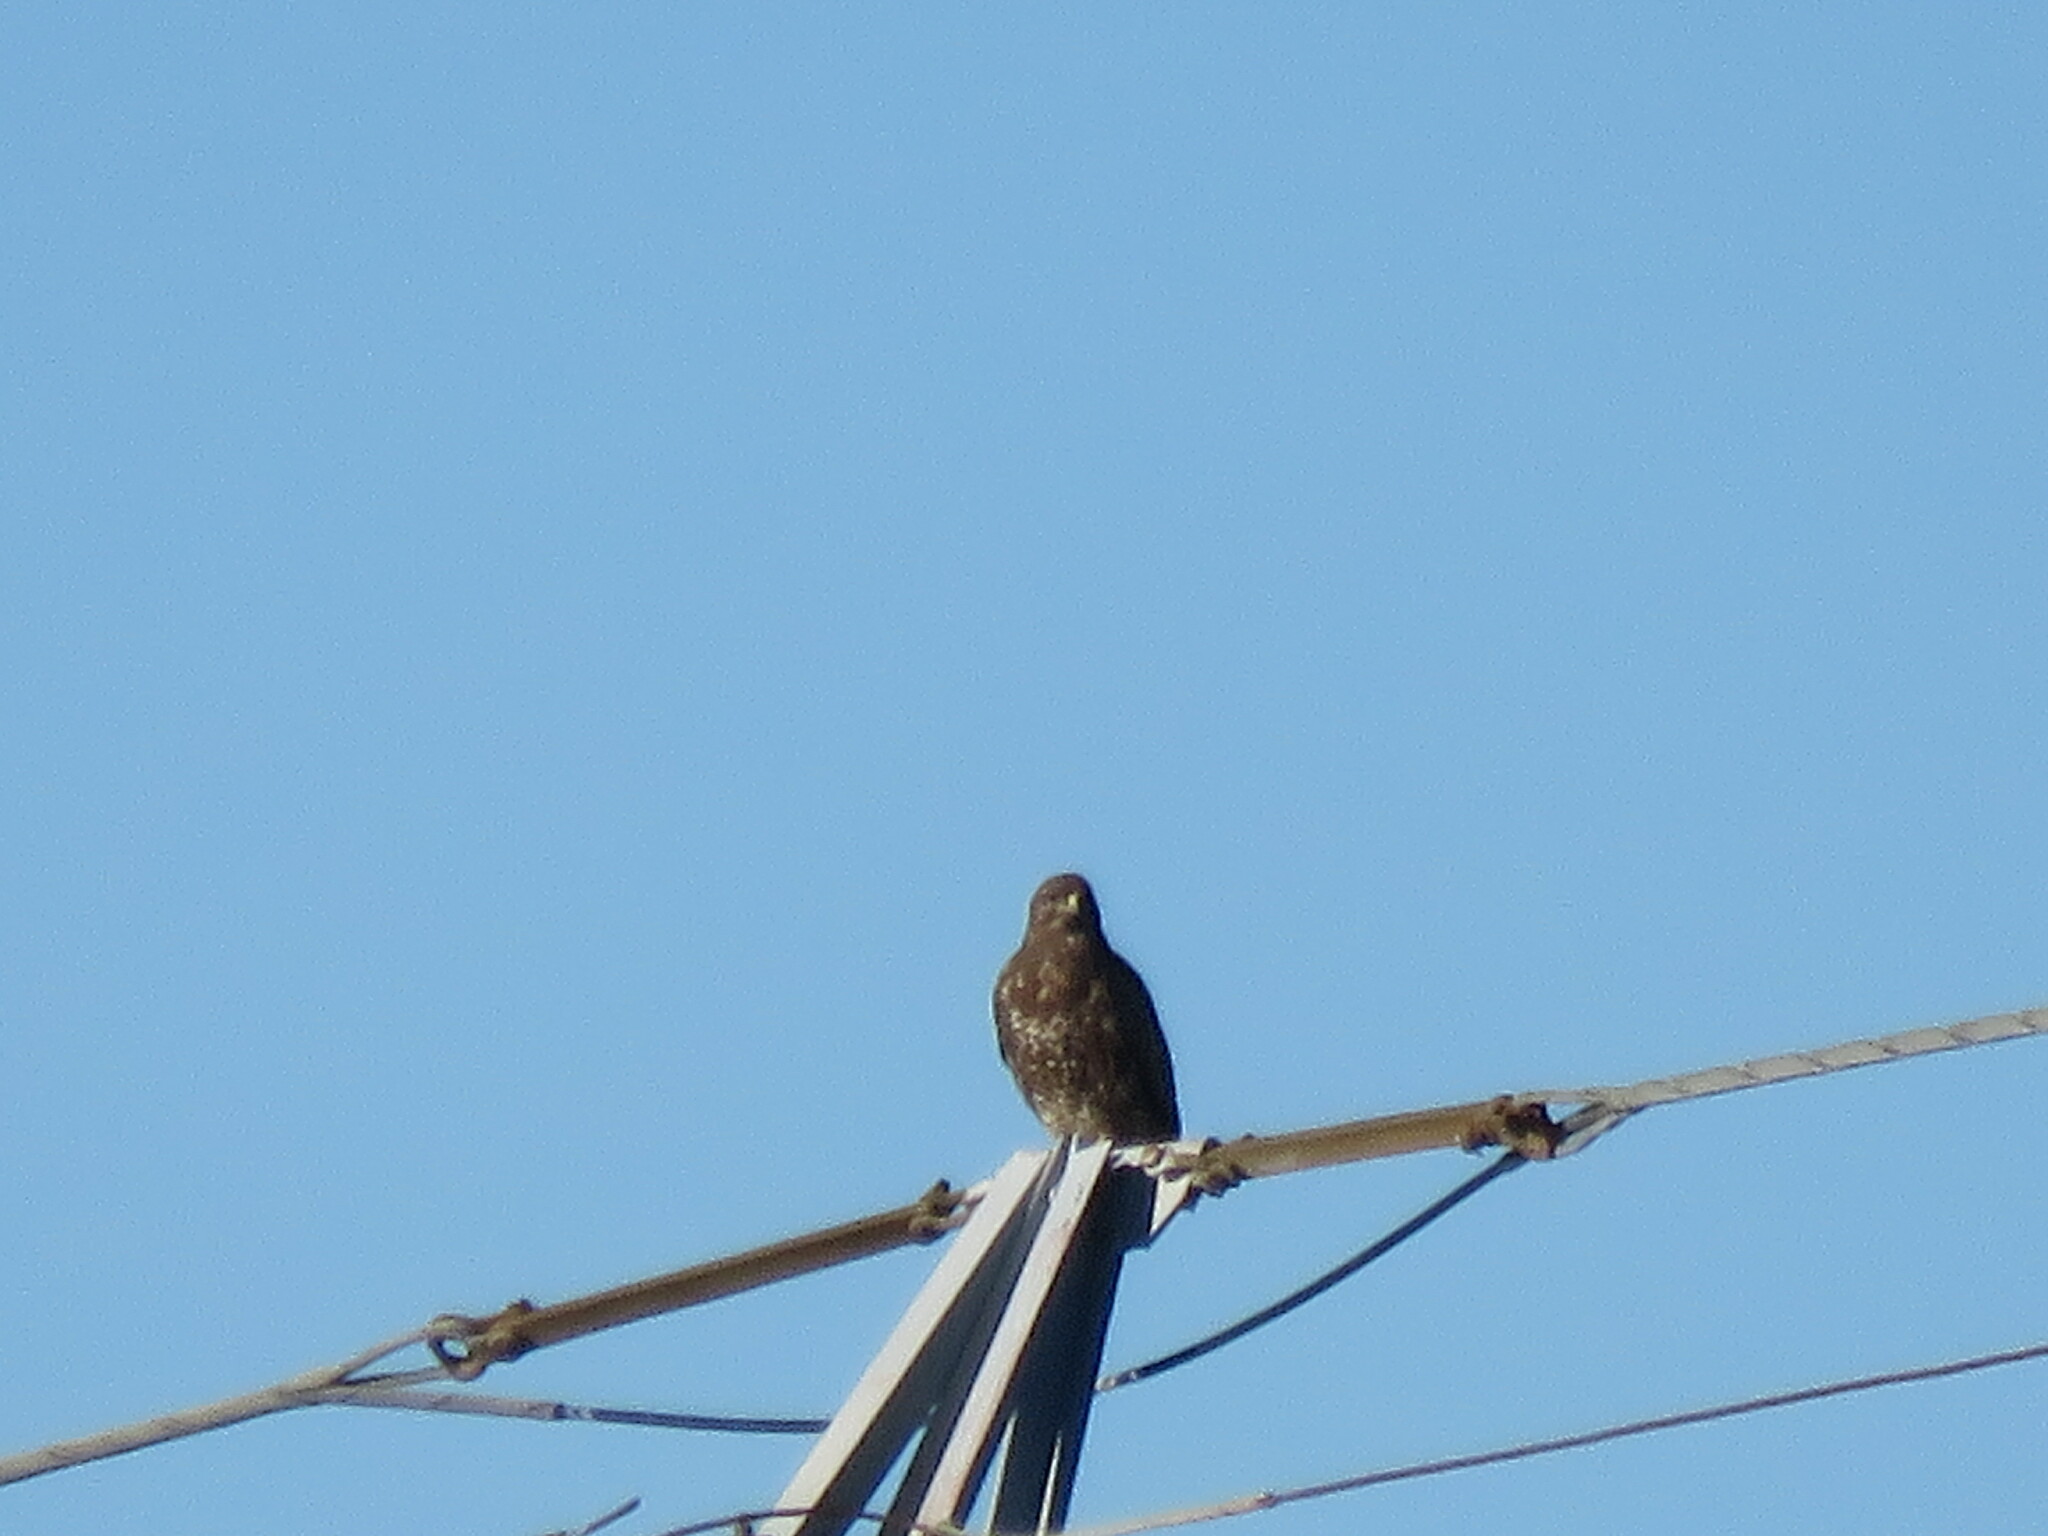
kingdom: Animalia
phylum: Chordata
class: Aves
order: Accipitriformes
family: Accipitridae
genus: Buteo
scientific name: Buteo buteo
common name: Common buzzard
